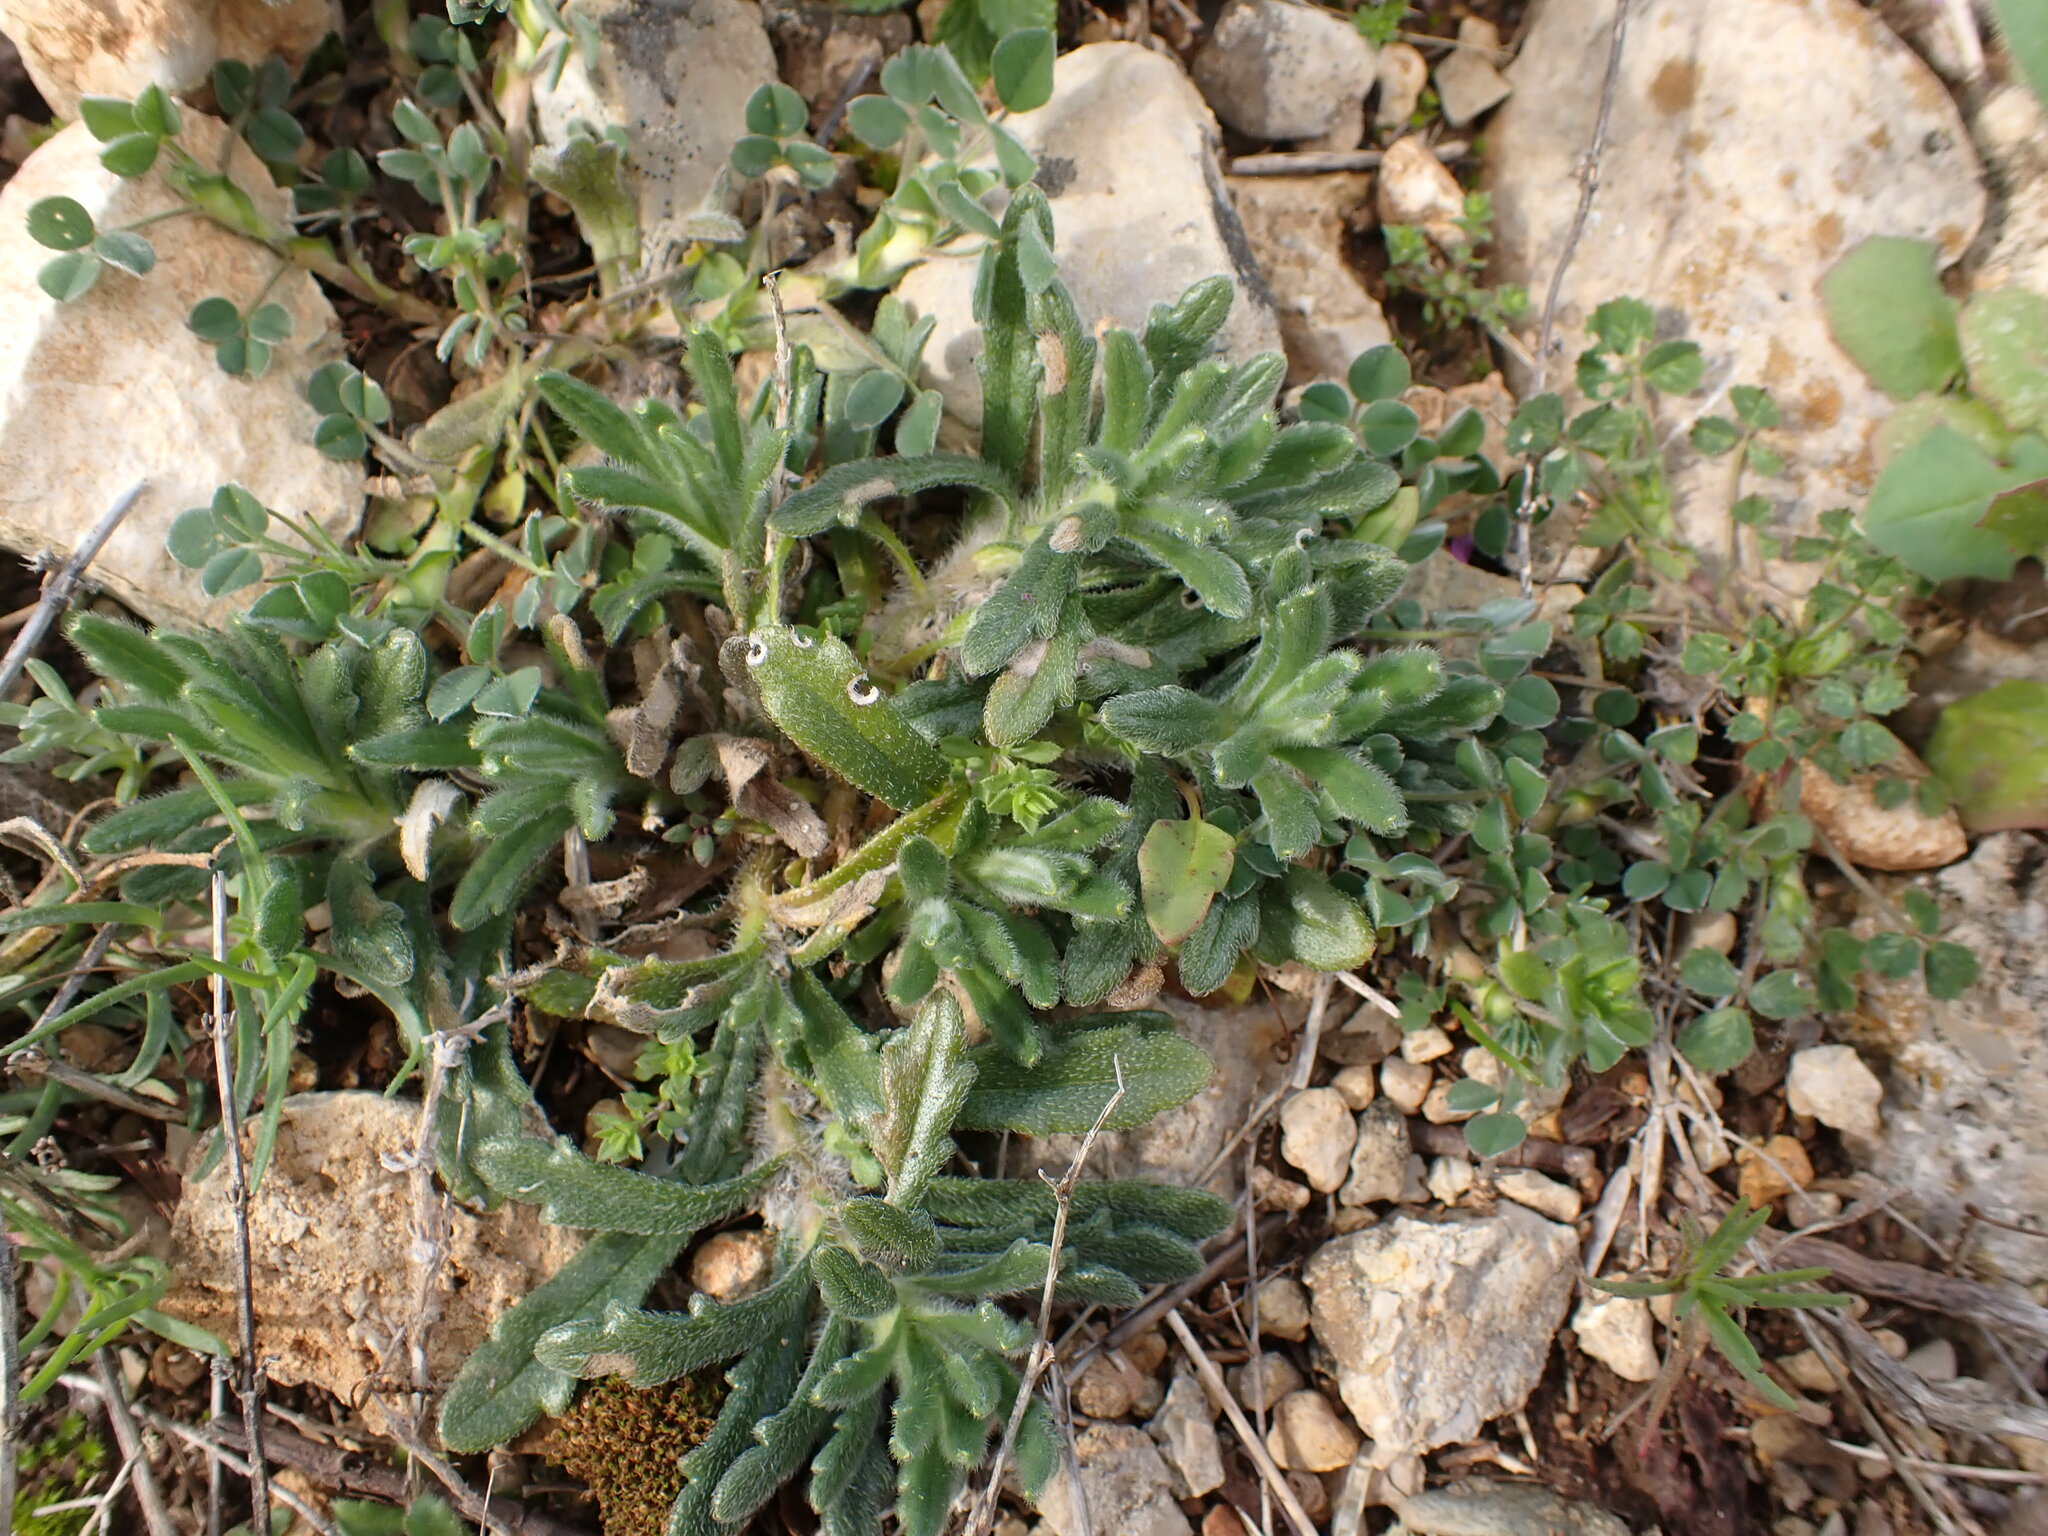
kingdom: Plantae
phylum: Tracheophyta
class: Magnoliopsida
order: Lamiales
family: Lamiaceae
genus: Ajuga
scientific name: Ajuga iva
